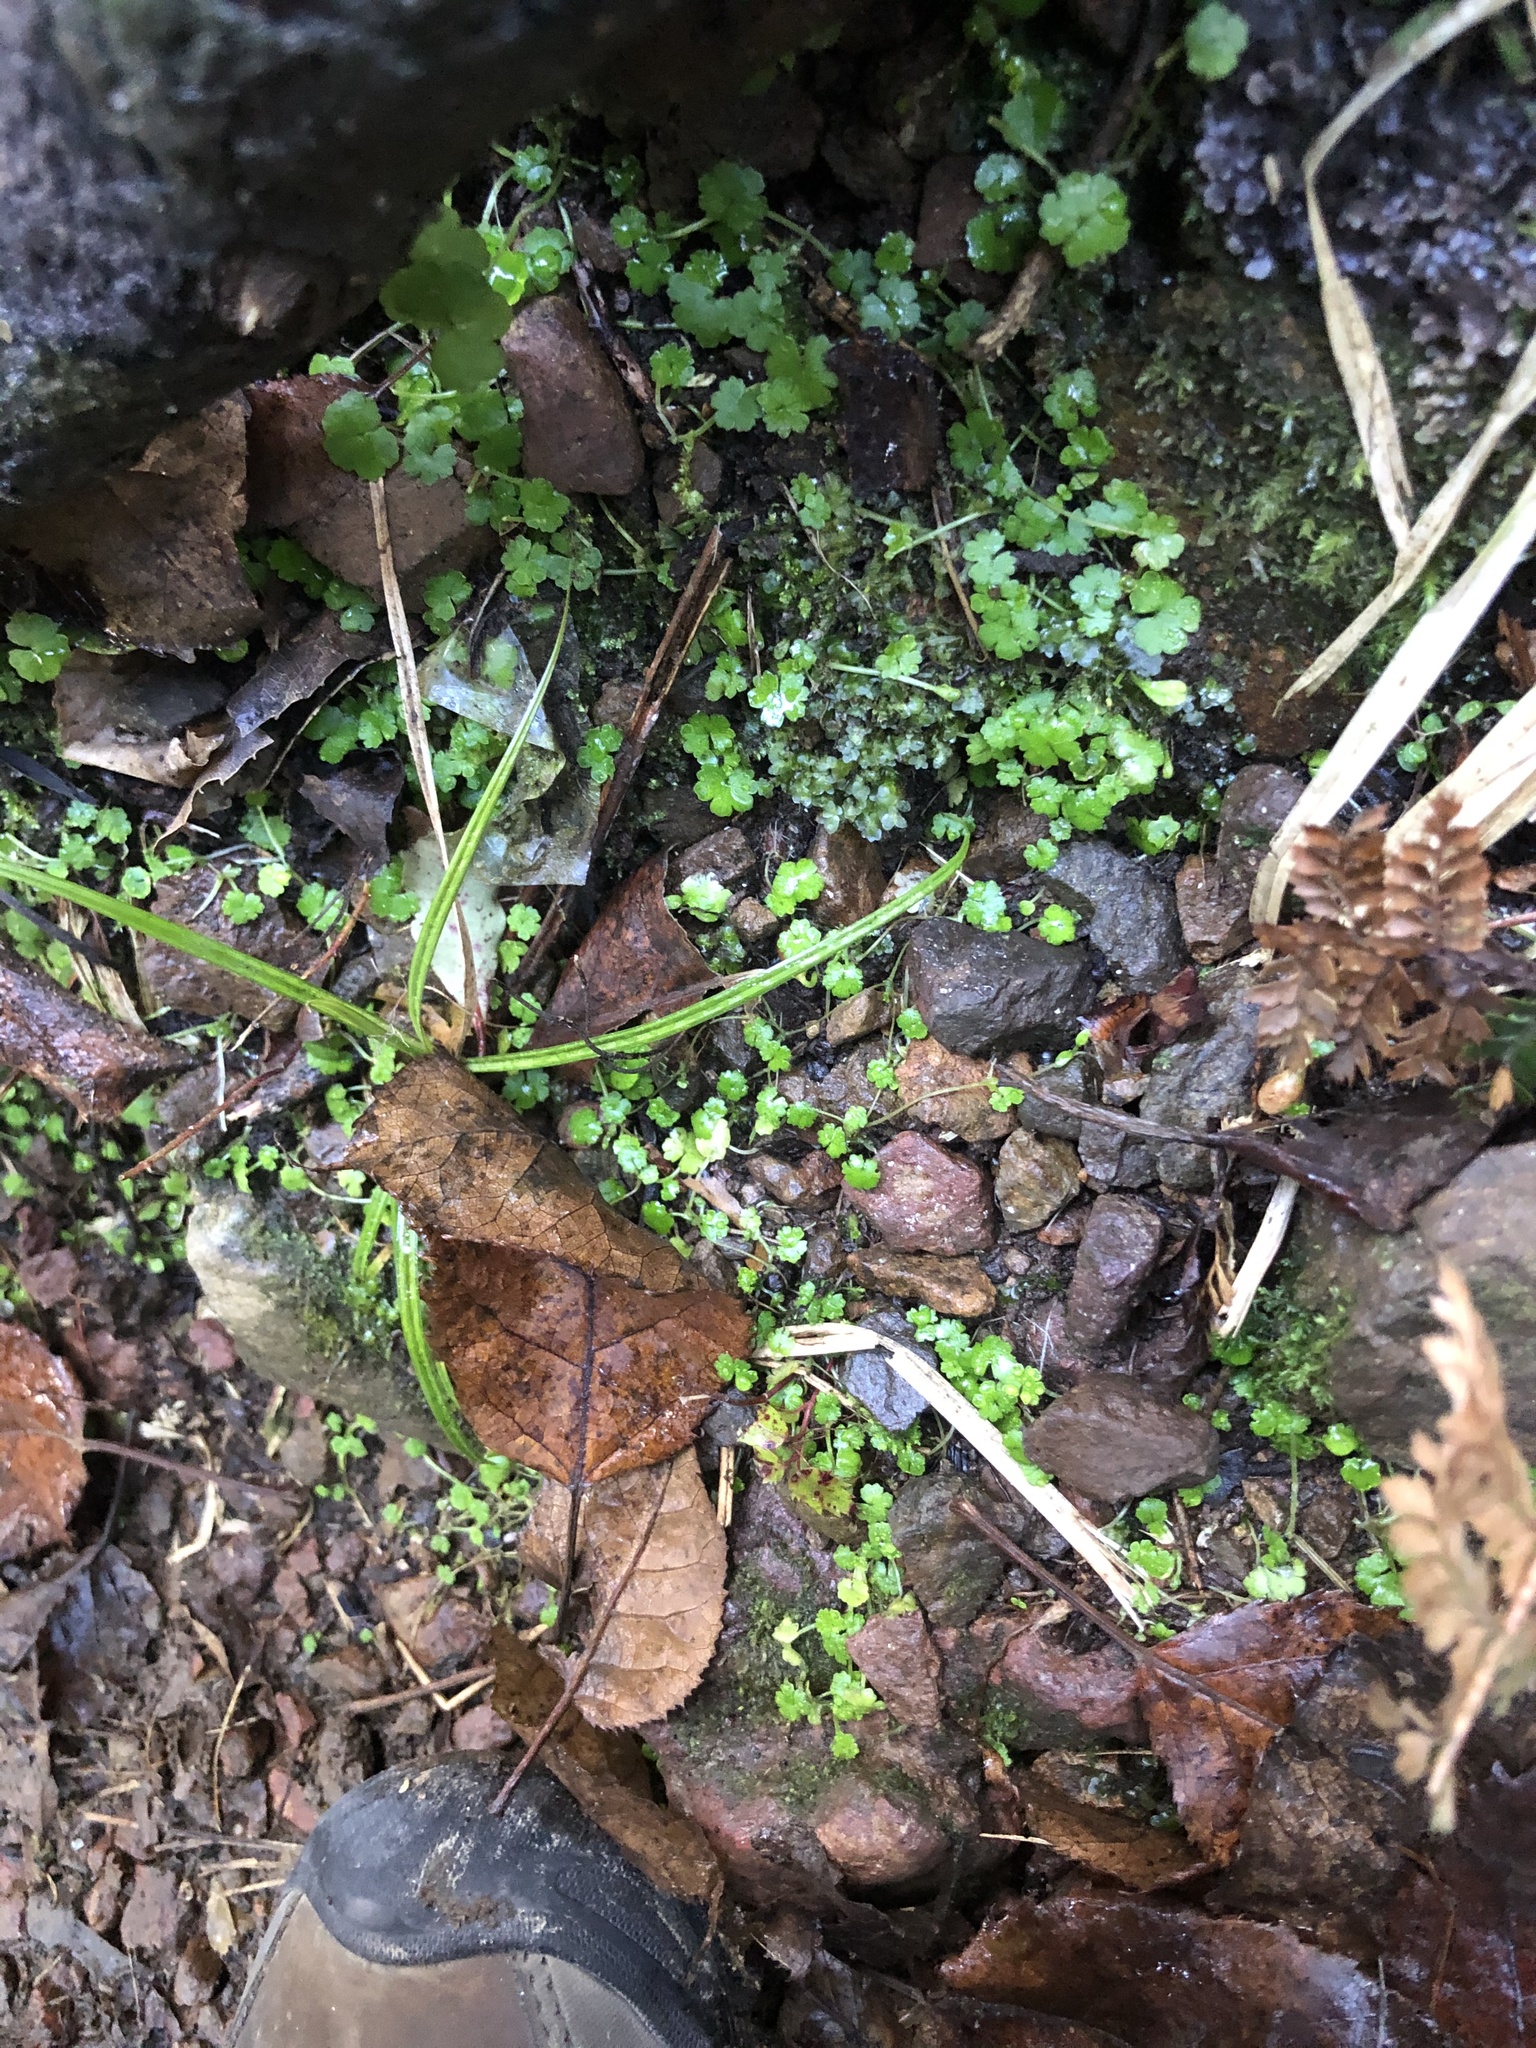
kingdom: Plantae
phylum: Tracheophyta
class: Magnoliopsida
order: Apiales
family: Araliaceae
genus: Hydrocotyle
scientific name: Hydrocotyle heteromeria
